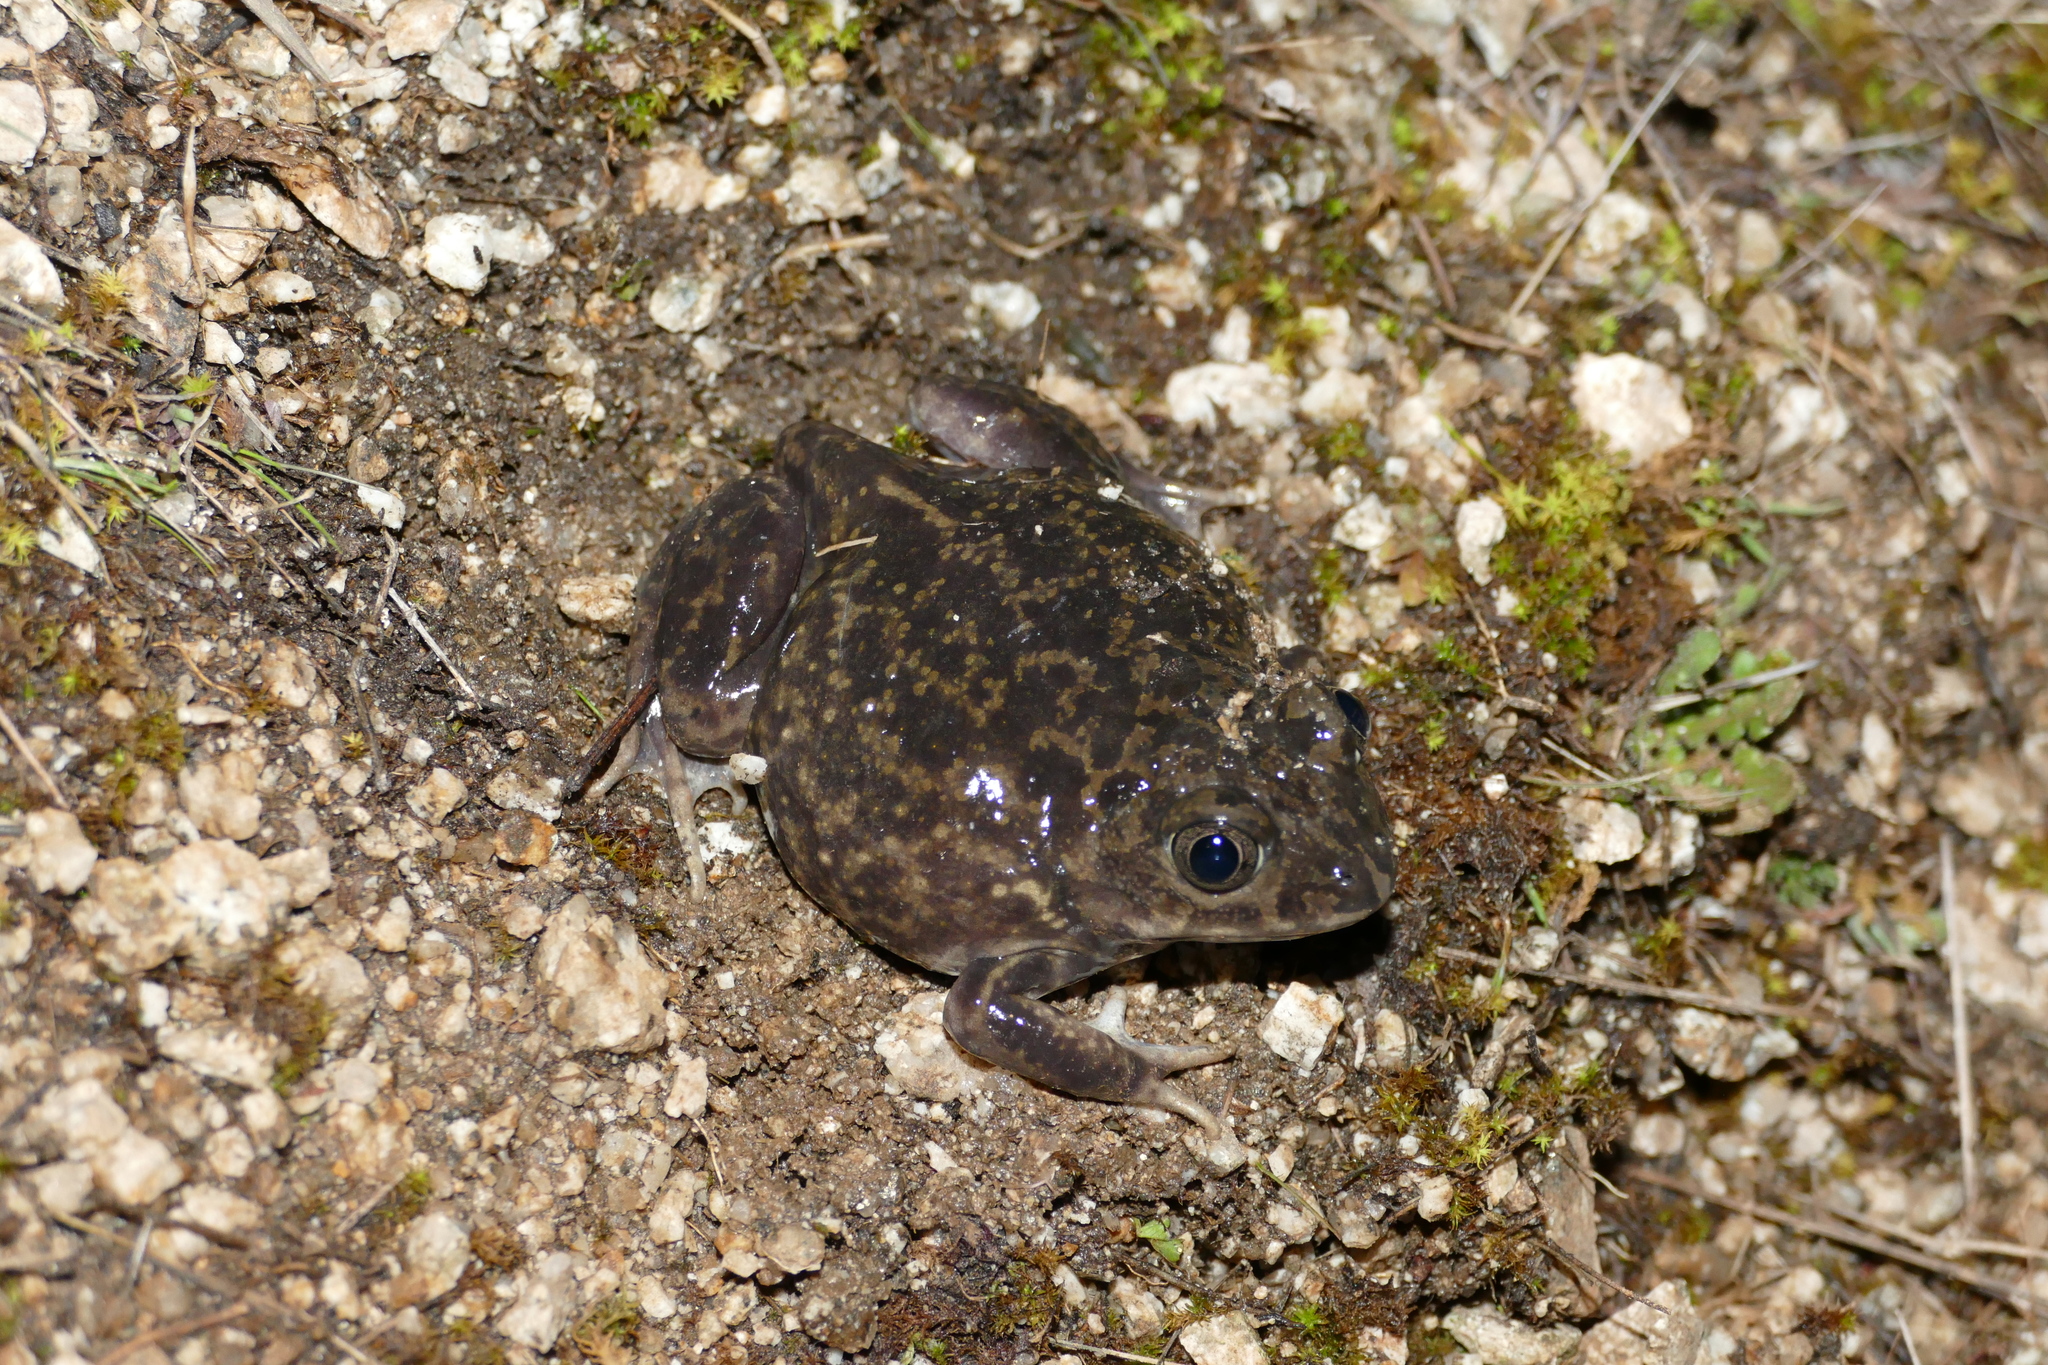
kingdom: Animalia
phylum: Chordata
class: Amphibia
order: Anura
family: Pelobatidae
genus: Pelobates
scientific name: Pelobates cultripes
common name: Western spadefoot
